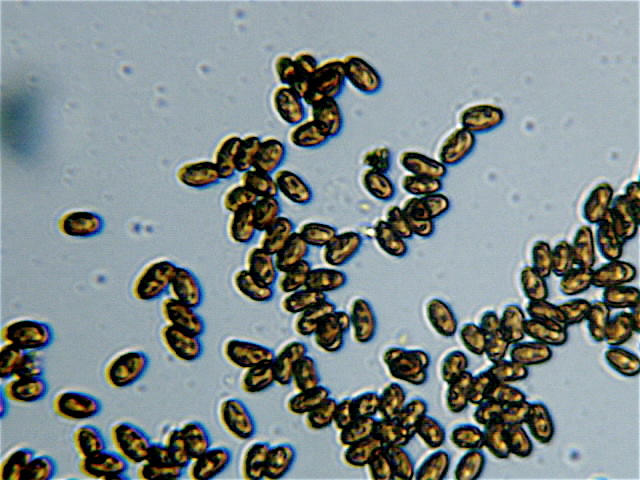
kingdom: Fungi
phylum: Basidiomycota
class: Agaricomycetes
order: Agaricales
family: Hymenogastraceae
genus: Psilocybe
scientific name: Psilocybe cyanescens
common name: Blueleg brownie
